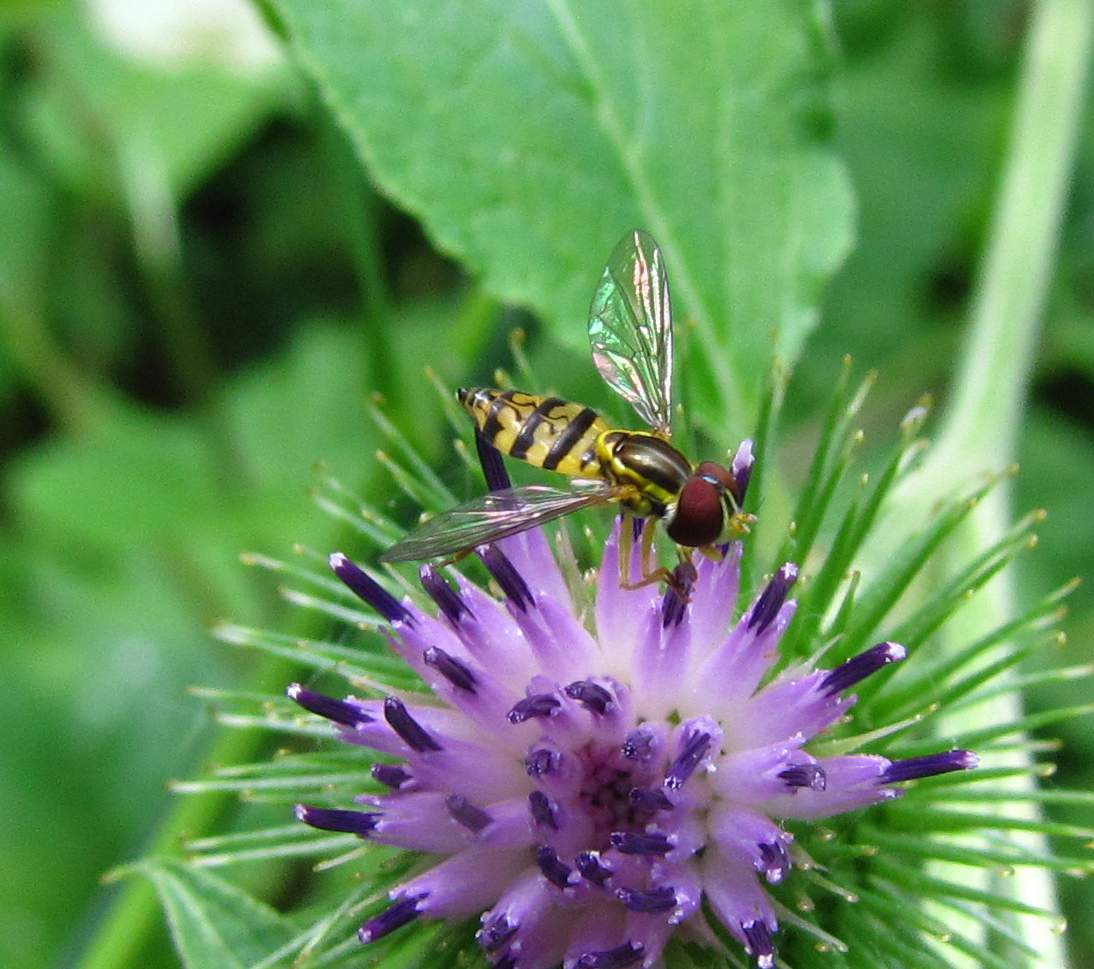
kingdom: Animalia
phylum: Arthropoda
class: Insecta
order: Diptera
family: Syrphidae
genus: Toxomerus
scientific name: Toxomerus geminatus
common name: Eastern calligrapher
